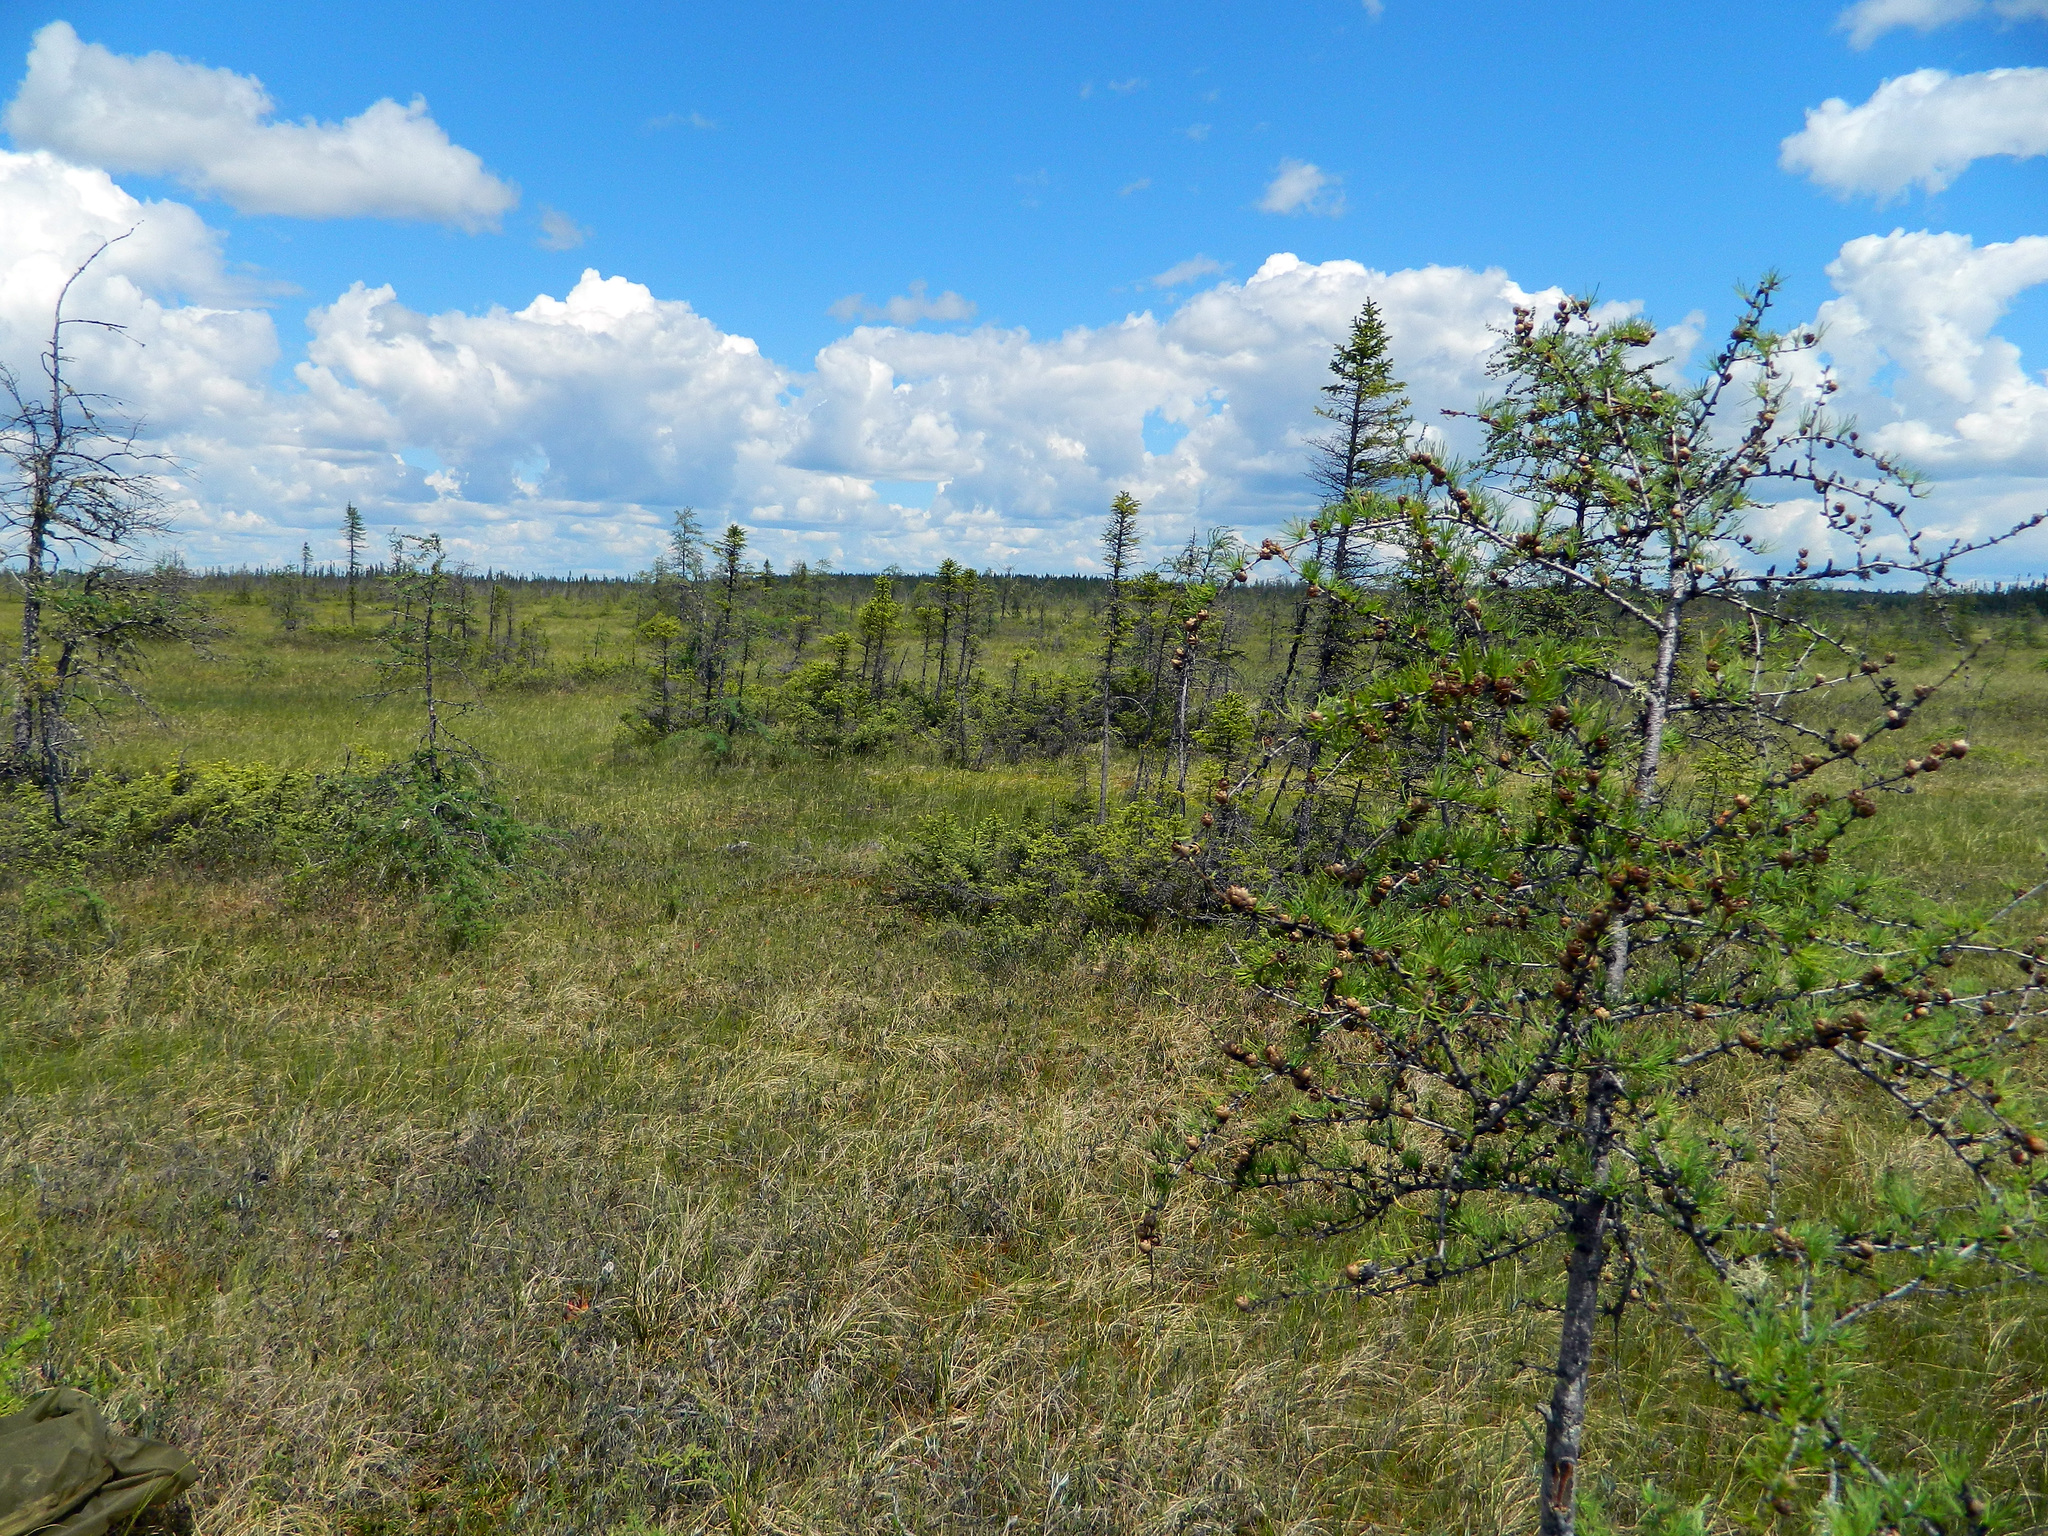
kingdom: Plantae
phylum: Tracheophyta
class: Pinopsida
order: Pinales
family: Pinaceae
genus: Larix
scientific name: Larix laricina
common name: American larch
